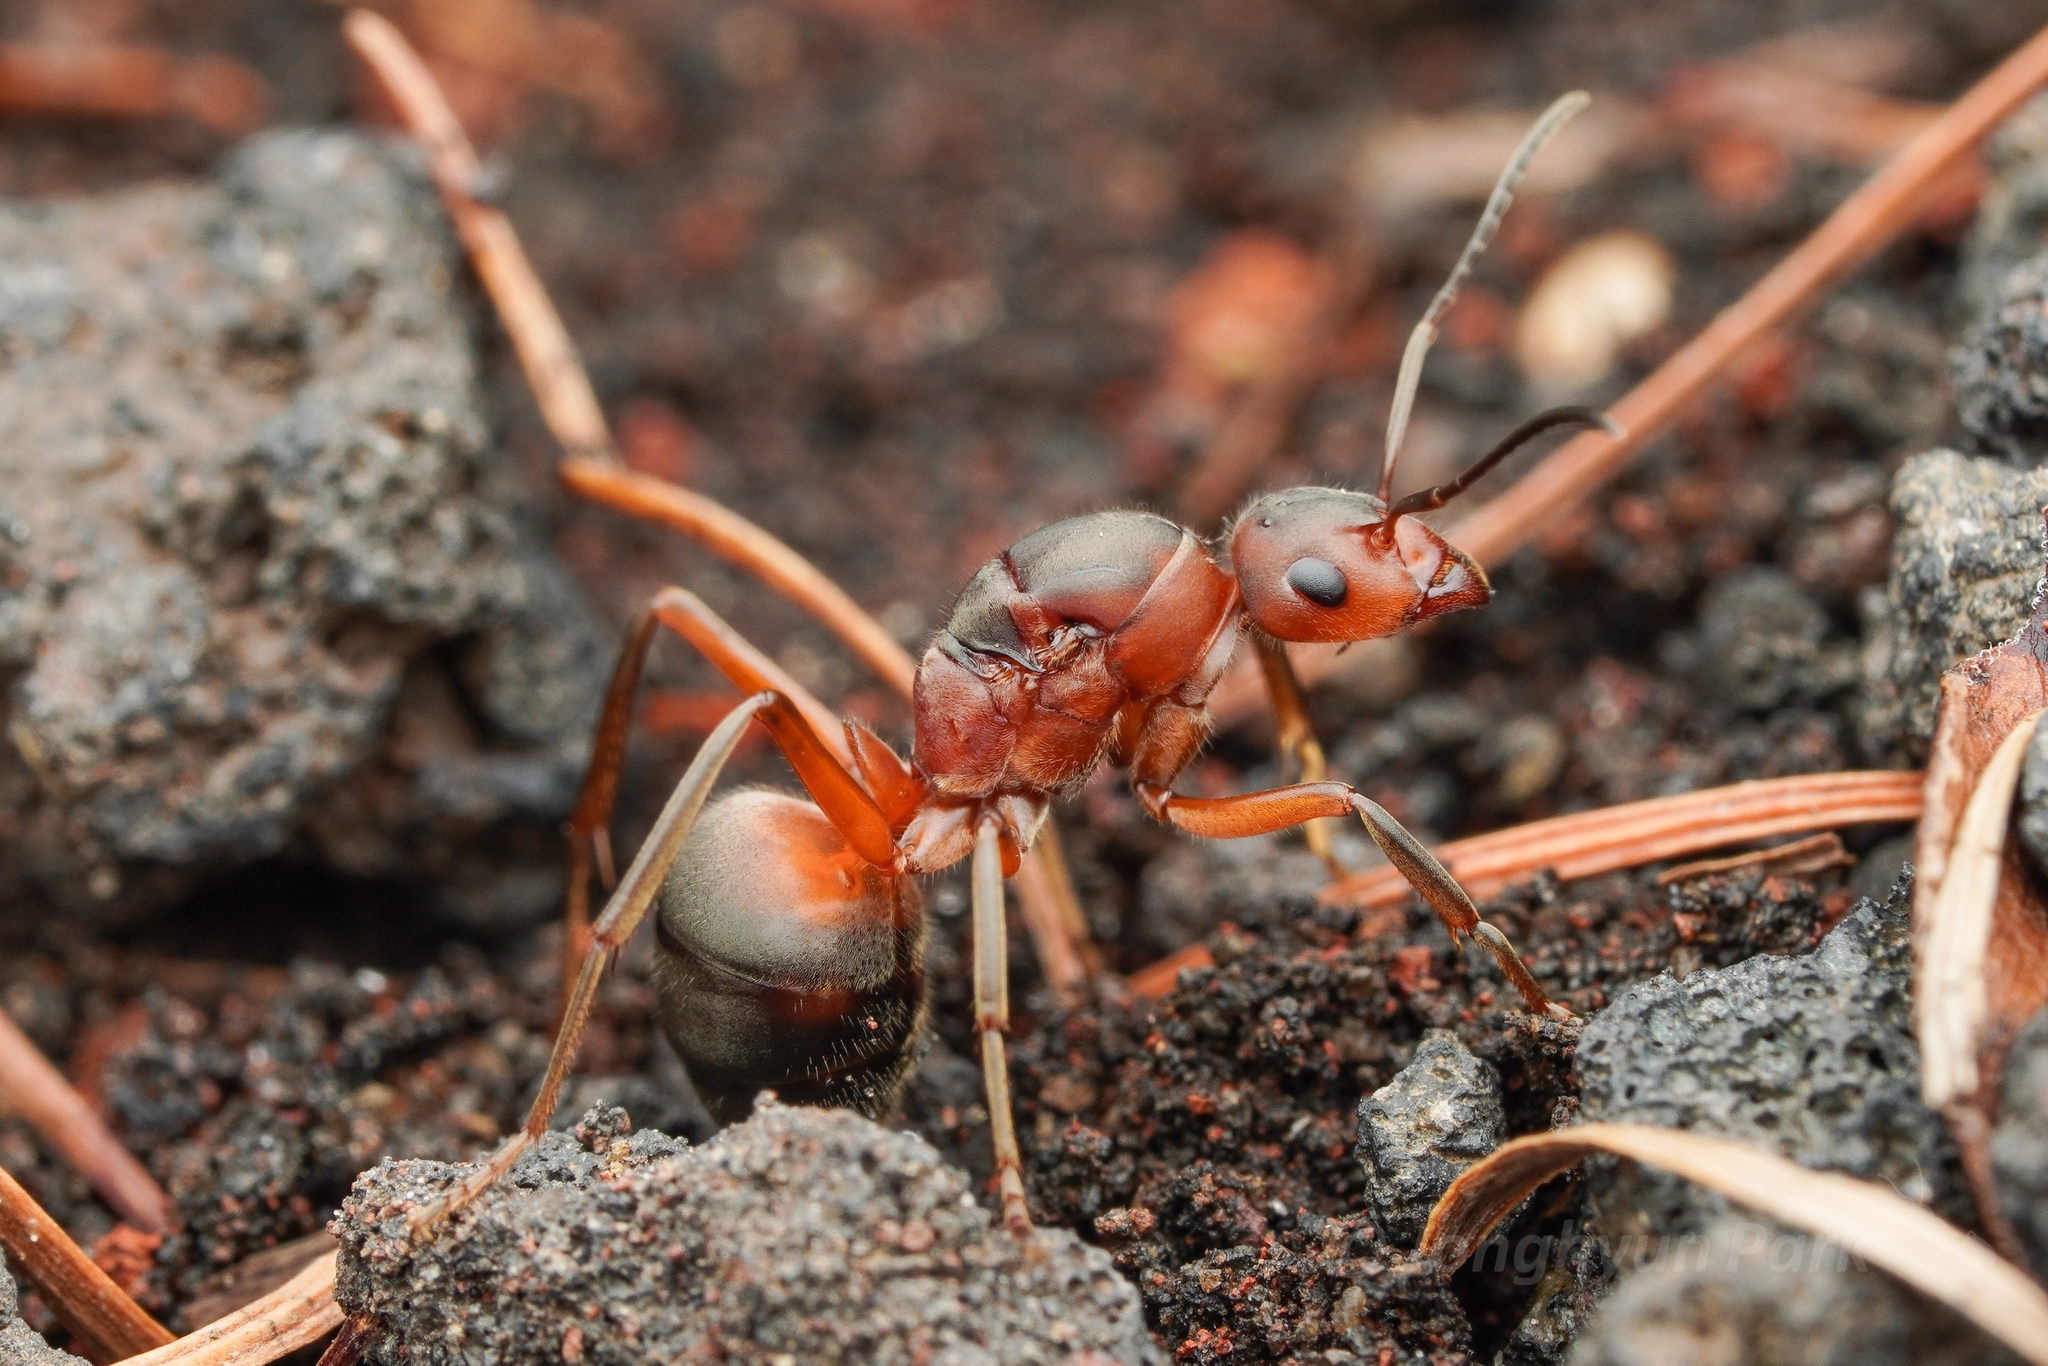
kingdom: Animalia
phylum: Arthropoda
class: Insecta
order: Hymenoptera
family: Formicidae
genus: Formica
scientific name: Formica truncorum
